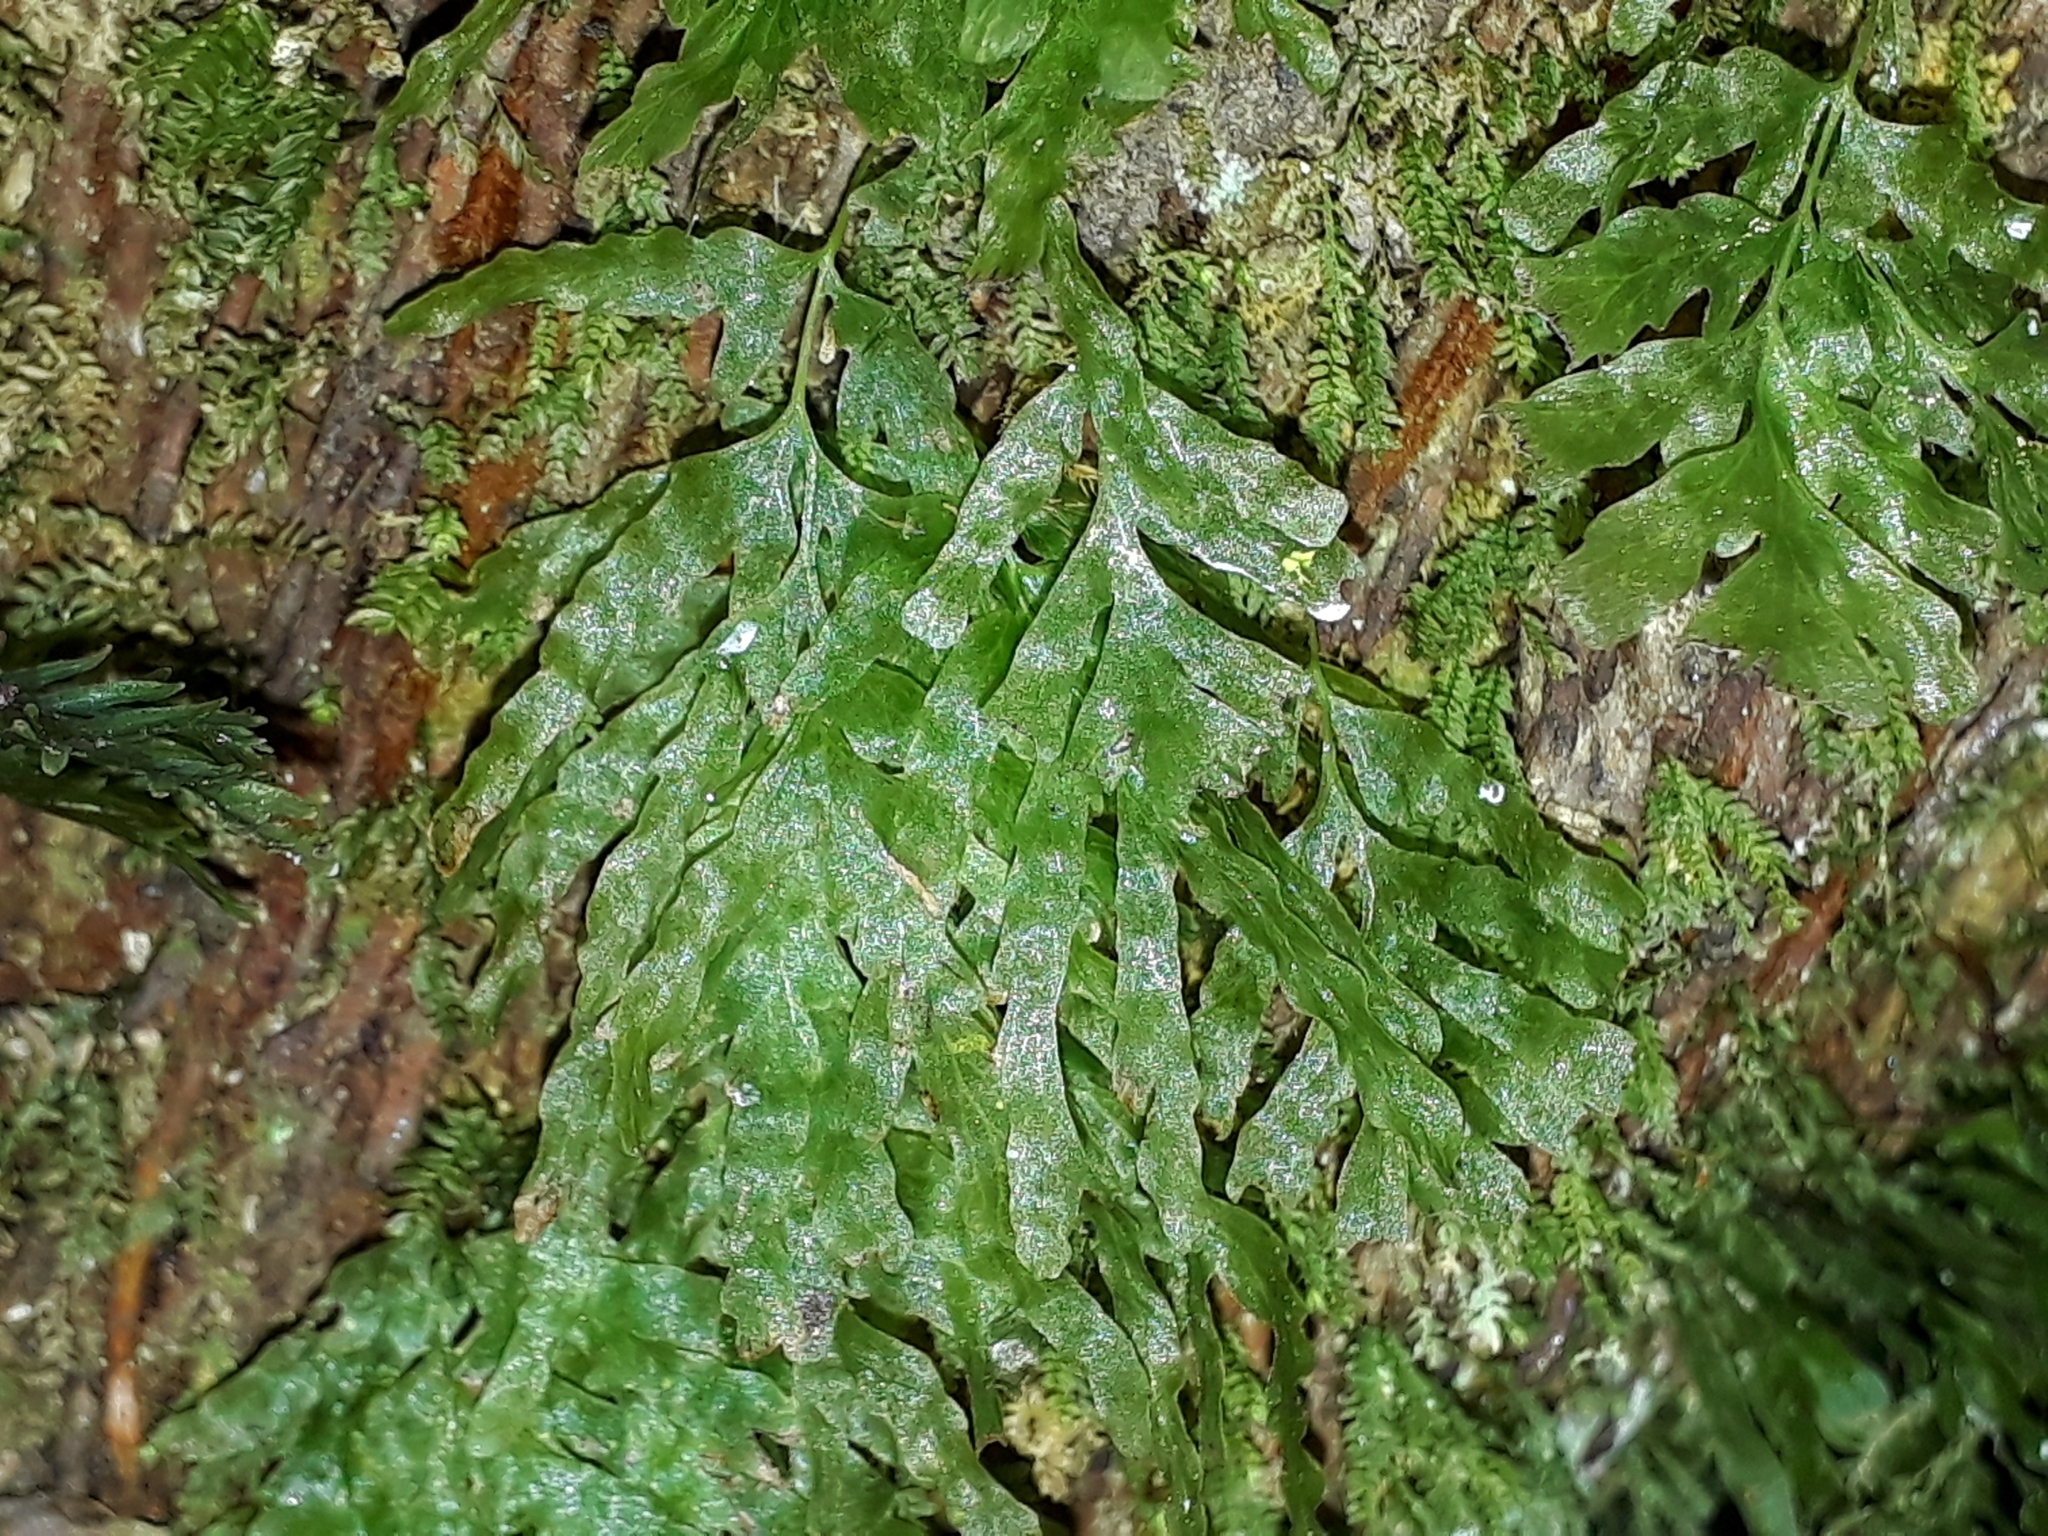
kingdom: Plantae
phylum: Tracheophyta
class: Polypodiopsida
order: Hymenophyllales
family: Hymenophyllaceae
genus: Polyphlebium
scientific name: Polyphlebium venosum
